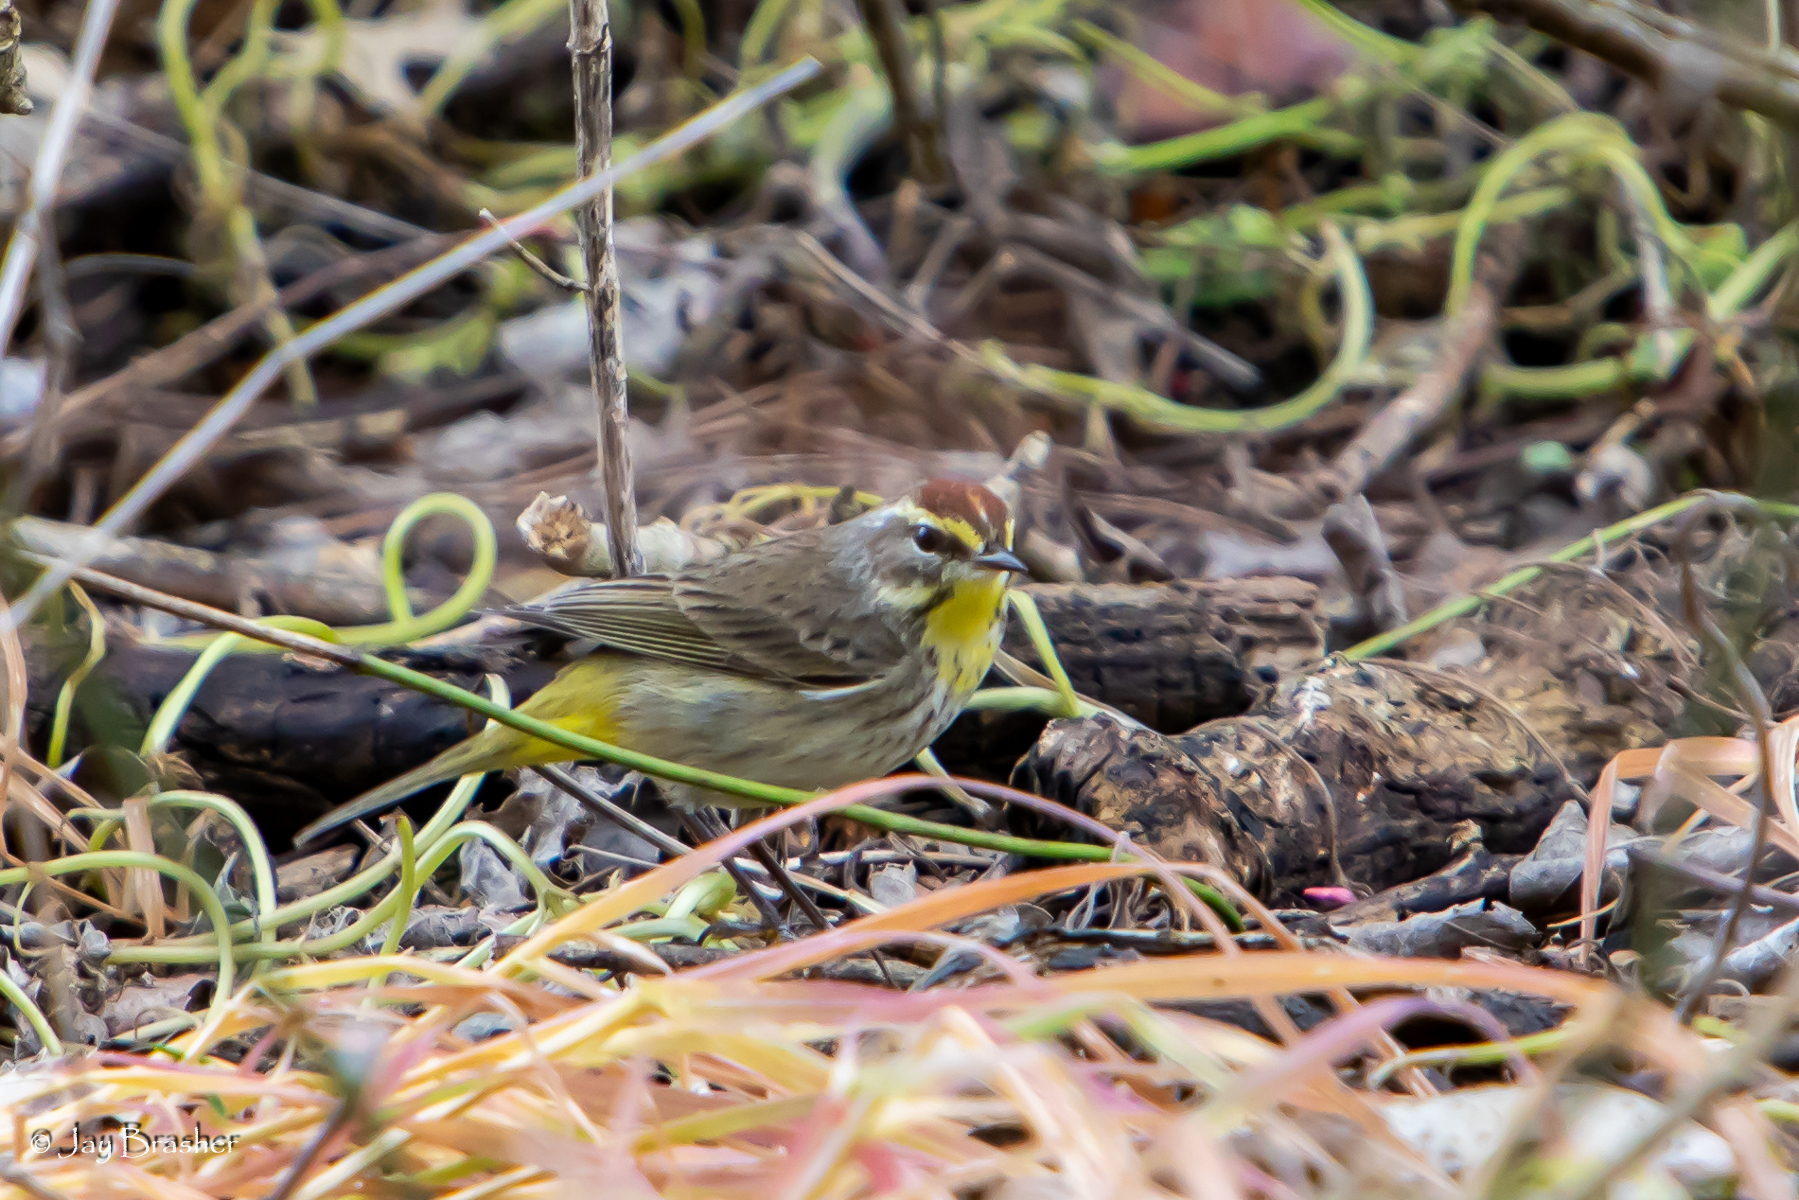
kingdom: Animalia
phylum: Chordata
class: Aves
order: Passeriformes
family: Parulidae
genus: Setophaga
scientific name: Setophaga palmarum
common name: Palm warbler
